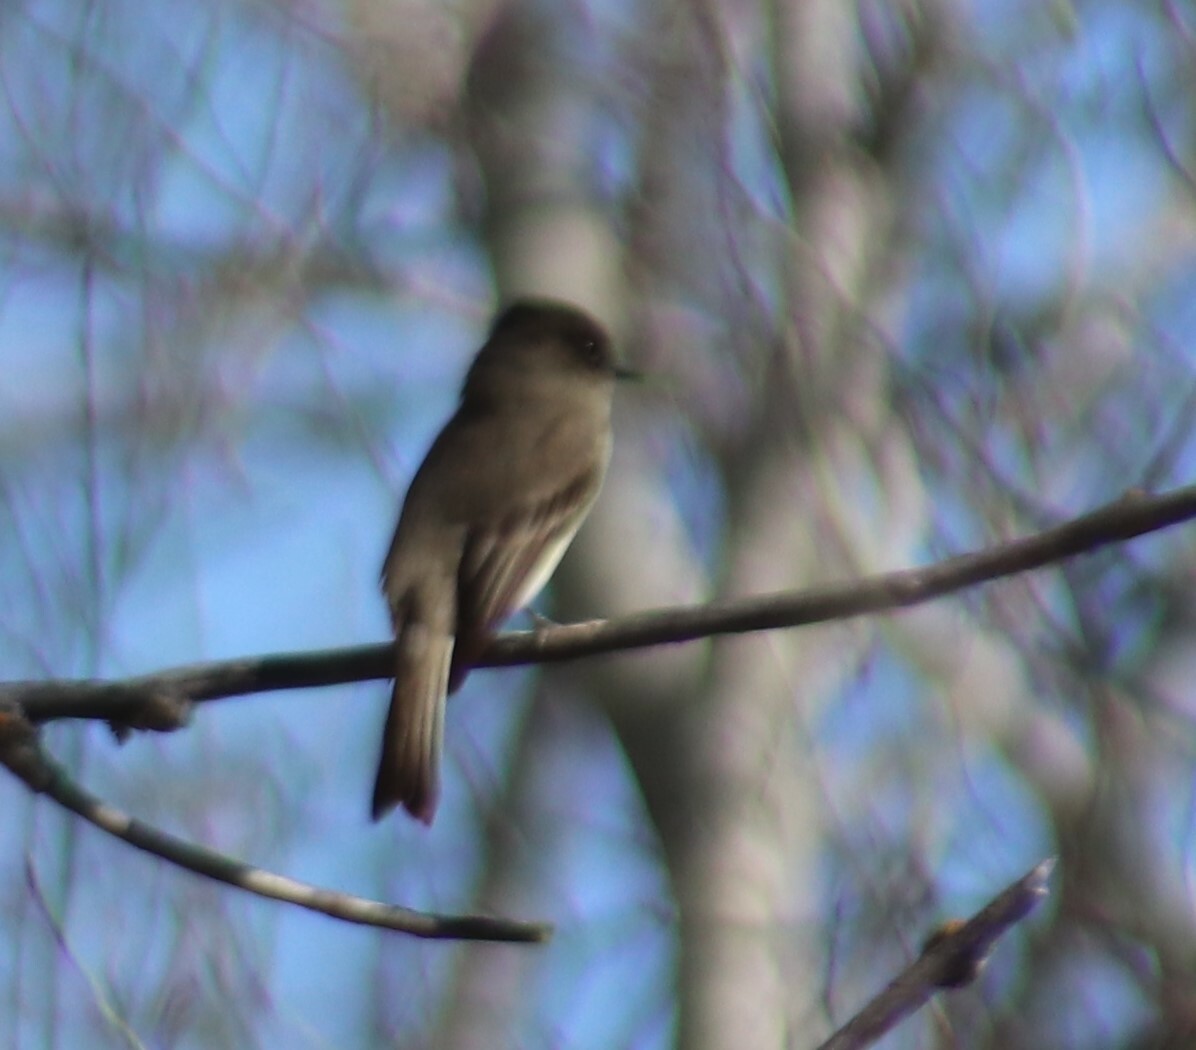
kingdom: Animalia
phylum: Chordata
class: Aves
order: Passeriformes
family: Tyrannidae
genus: Sayornis
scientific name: Sayornis phoebe
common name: Eastern phoebe
